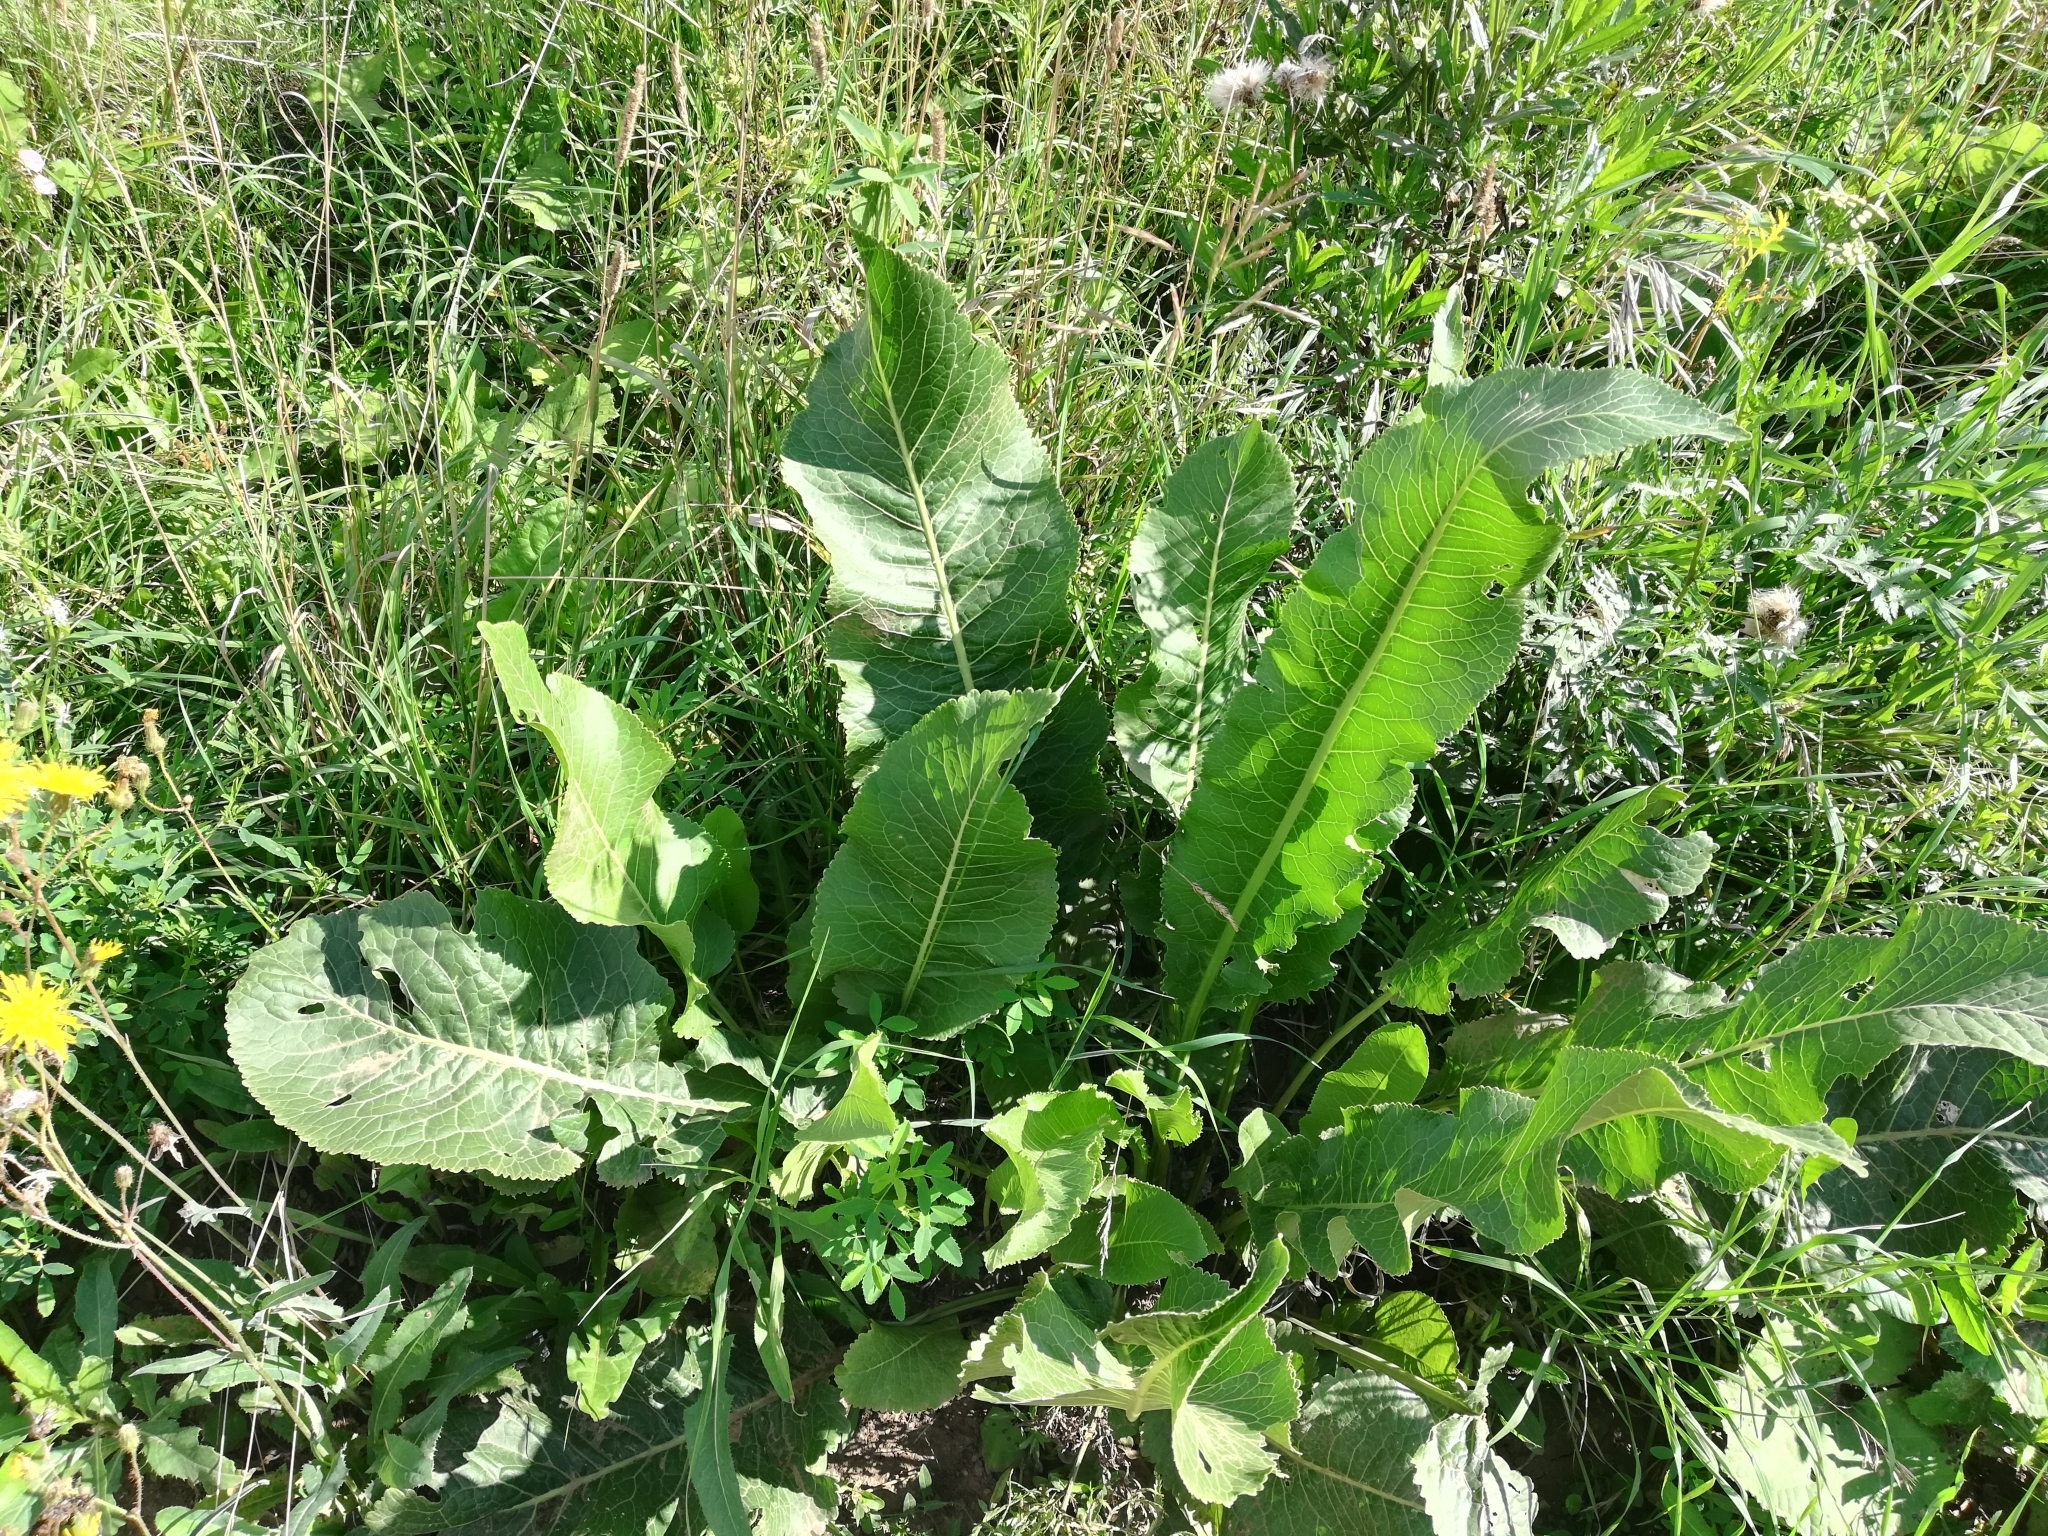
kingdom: Plantae
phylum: Tracheophyta
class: Magnoliopsida
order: Brassicales
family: Brassicaceae
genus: Armoracia
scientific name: Armoracia rusticana
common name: Horseradish
